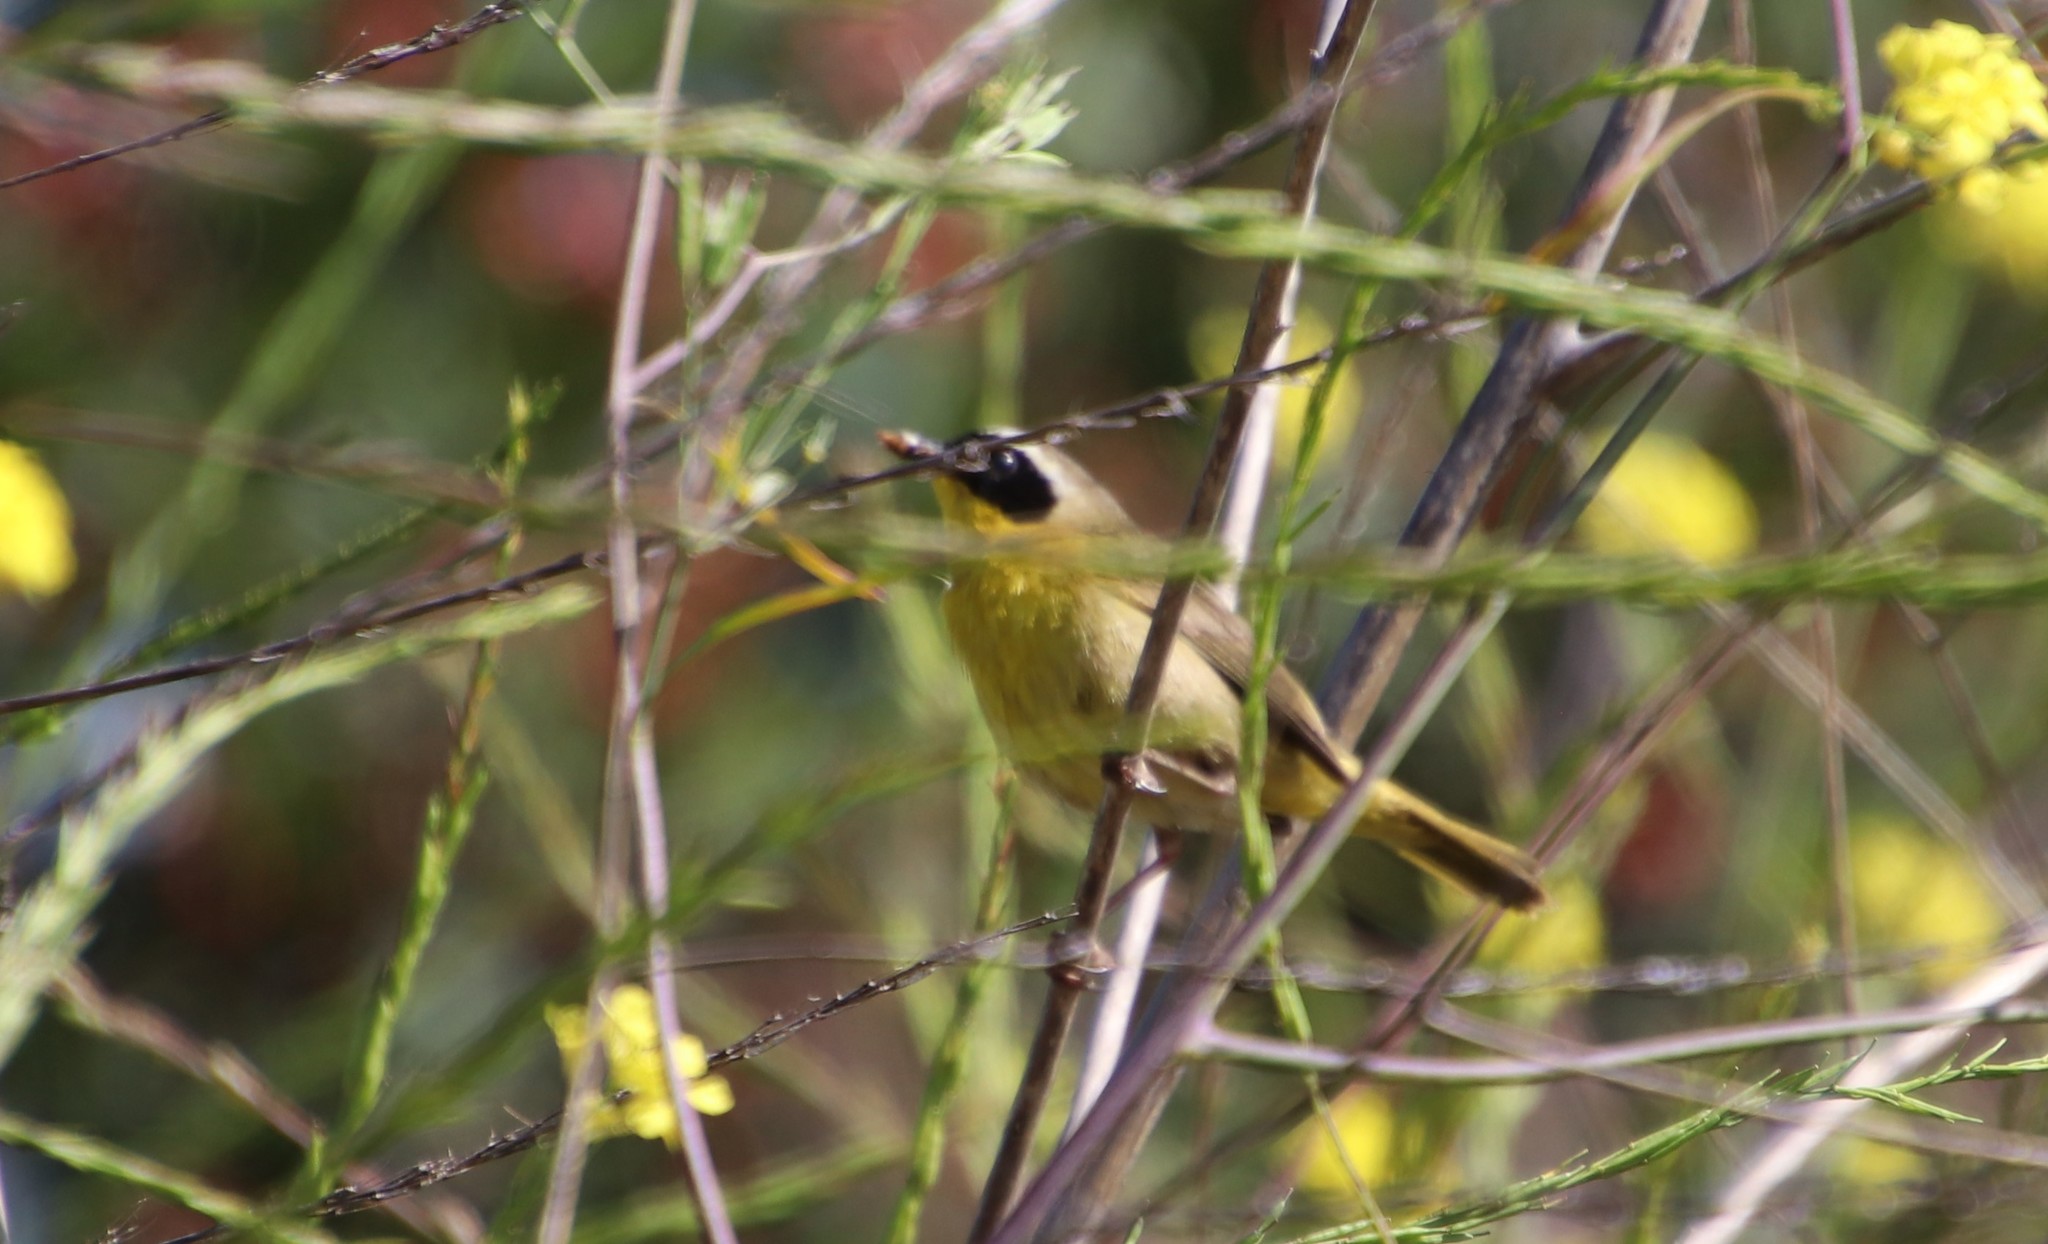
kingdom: Animalia
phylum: Chordata
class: Aves
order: Passeriformes
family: Parulidae
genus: Geothlypis
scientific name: Geothlypis trichas
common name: Common yellowthroat
